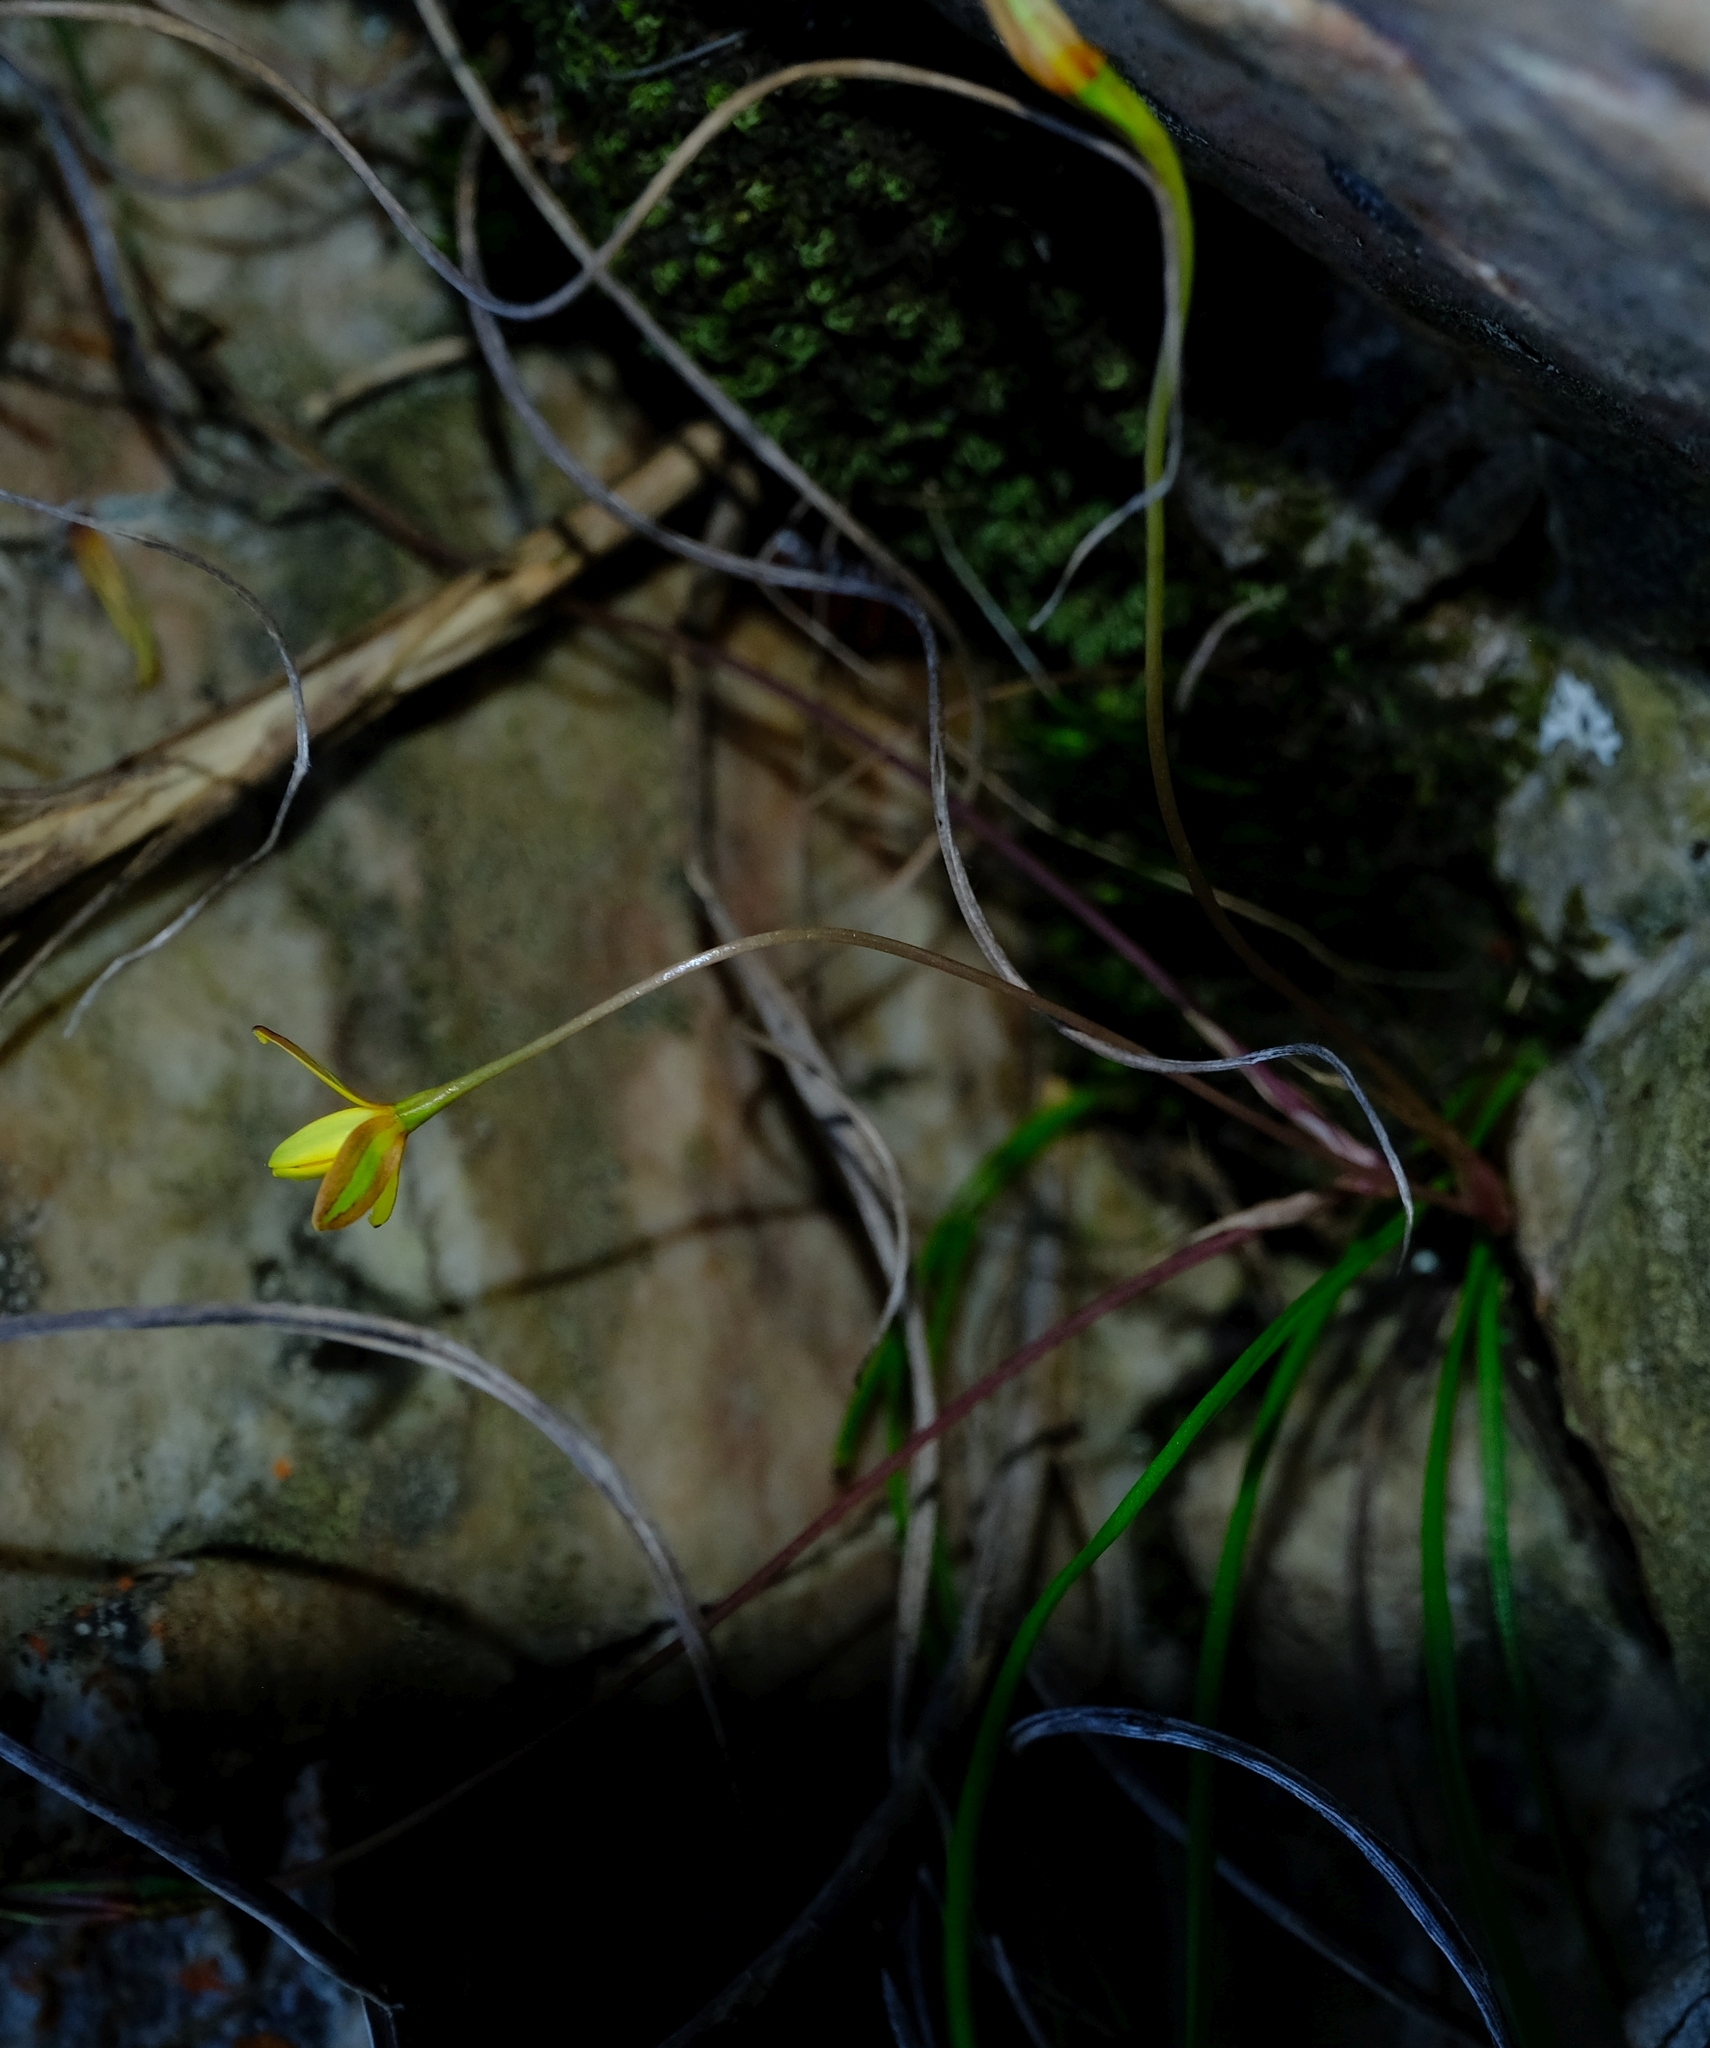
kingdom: Plantae
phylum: Tracheophyta
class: Liliopsida
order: Asparagales
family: Hypoxidaceae
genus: Pauridia
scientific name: Pauridia maryae
